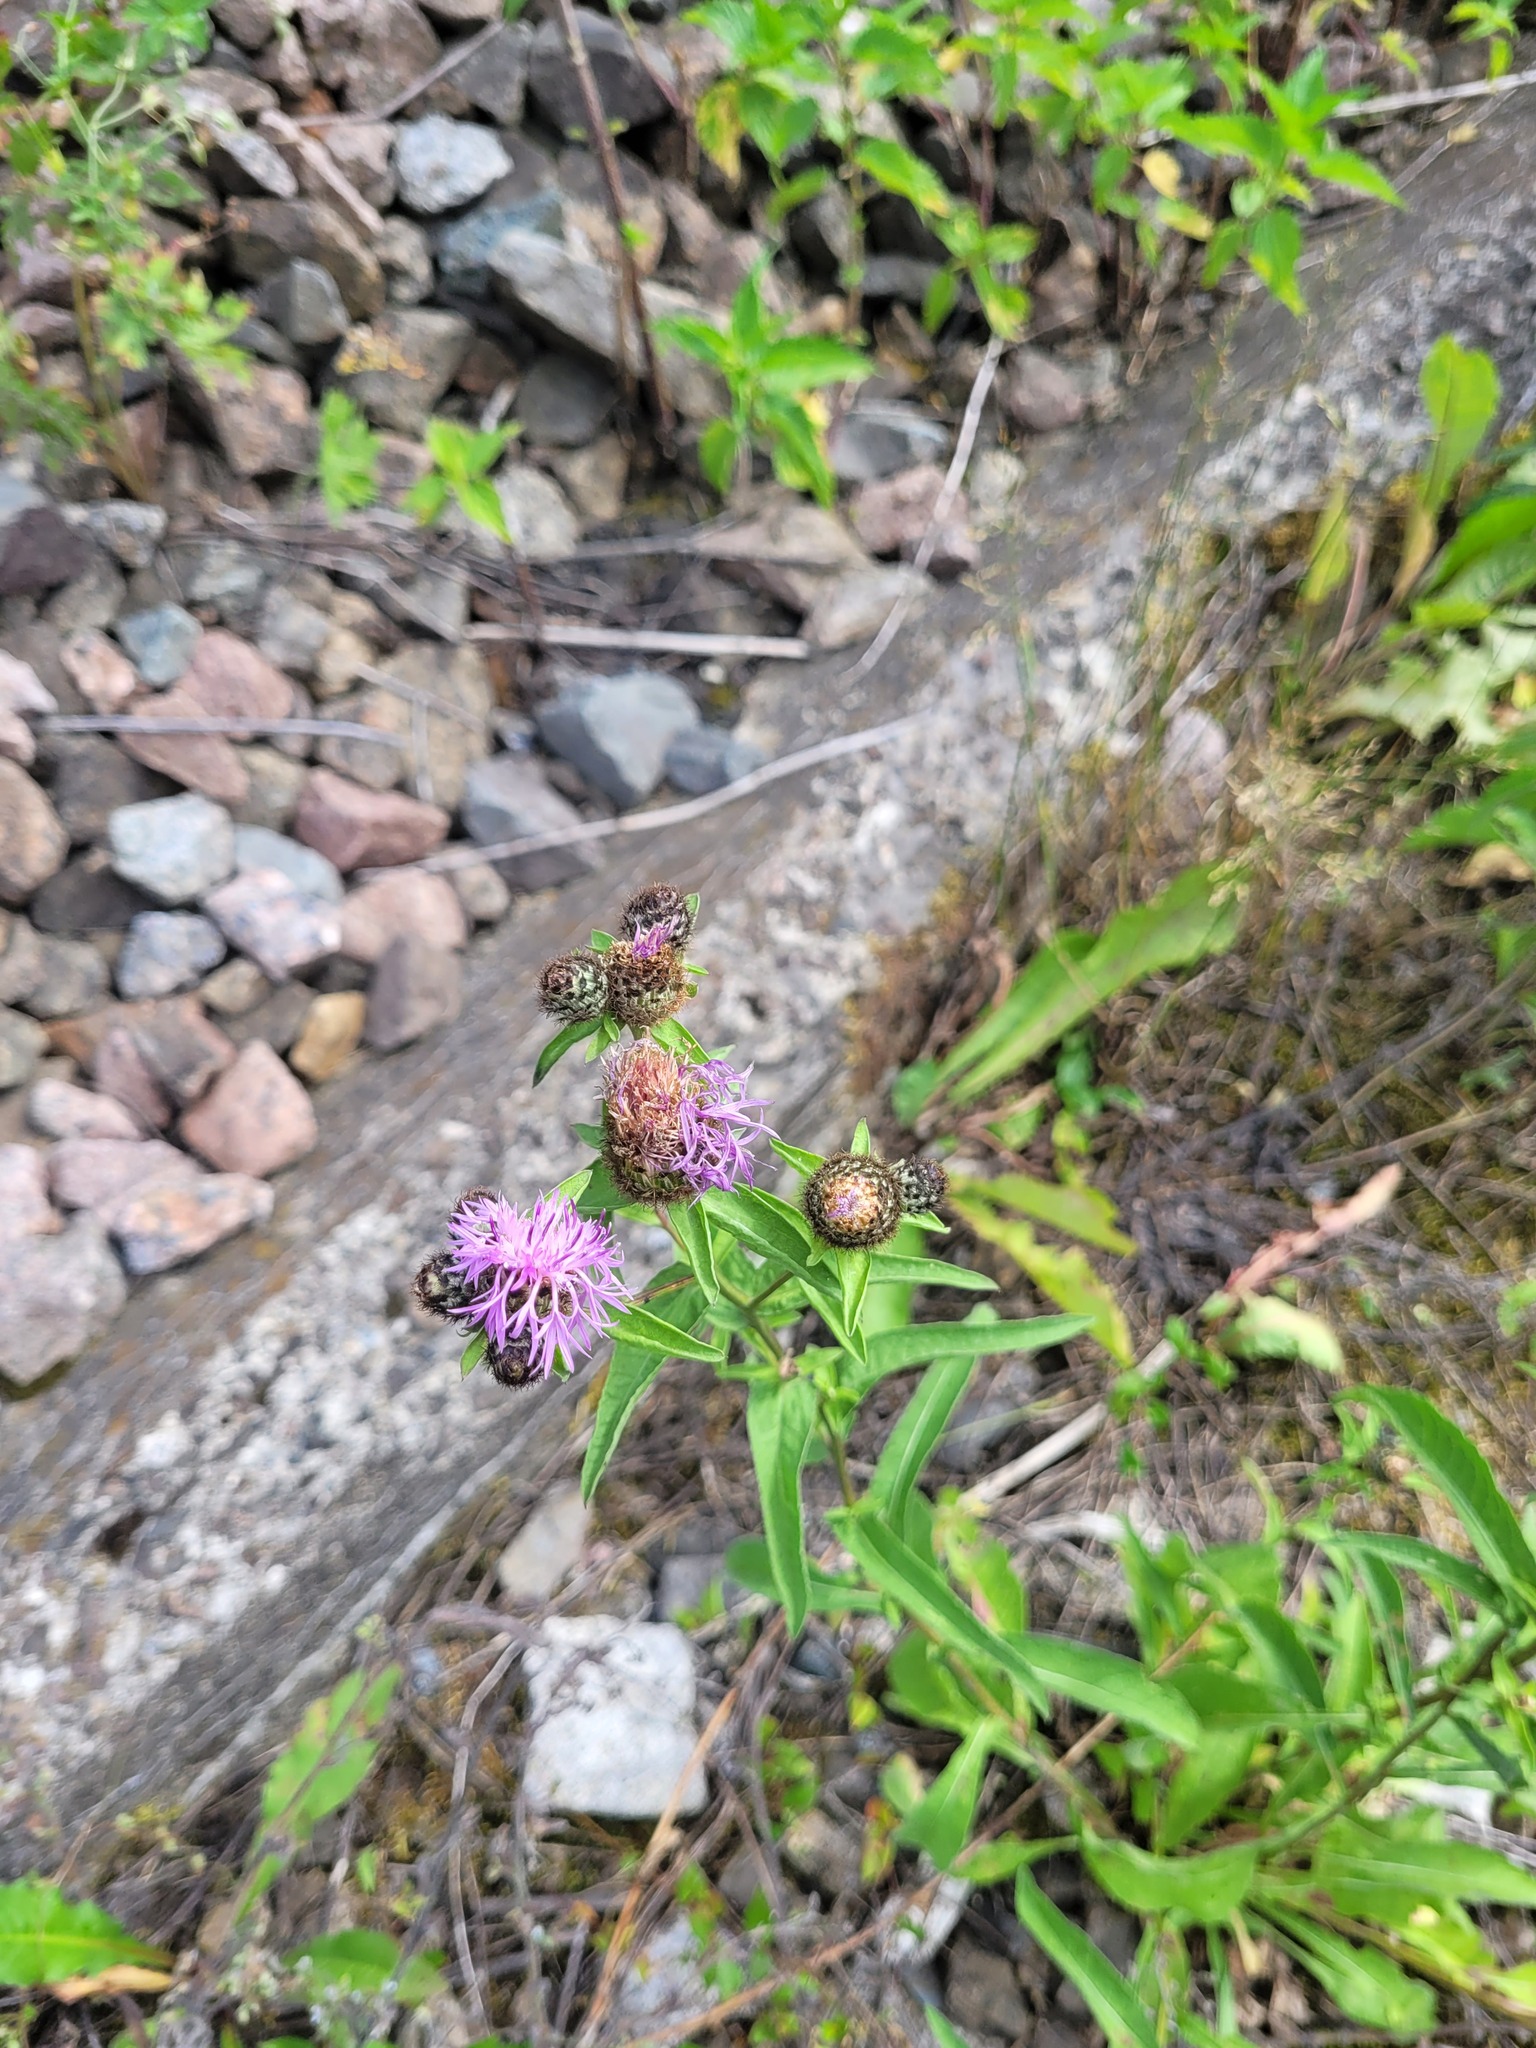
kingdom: Plantae
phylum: Tracheophyta
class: Magnoliopsida
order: Asterales
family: Asteraceae
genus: Centaurea
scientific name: Centaurea phrygia
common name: Wig knapweed
